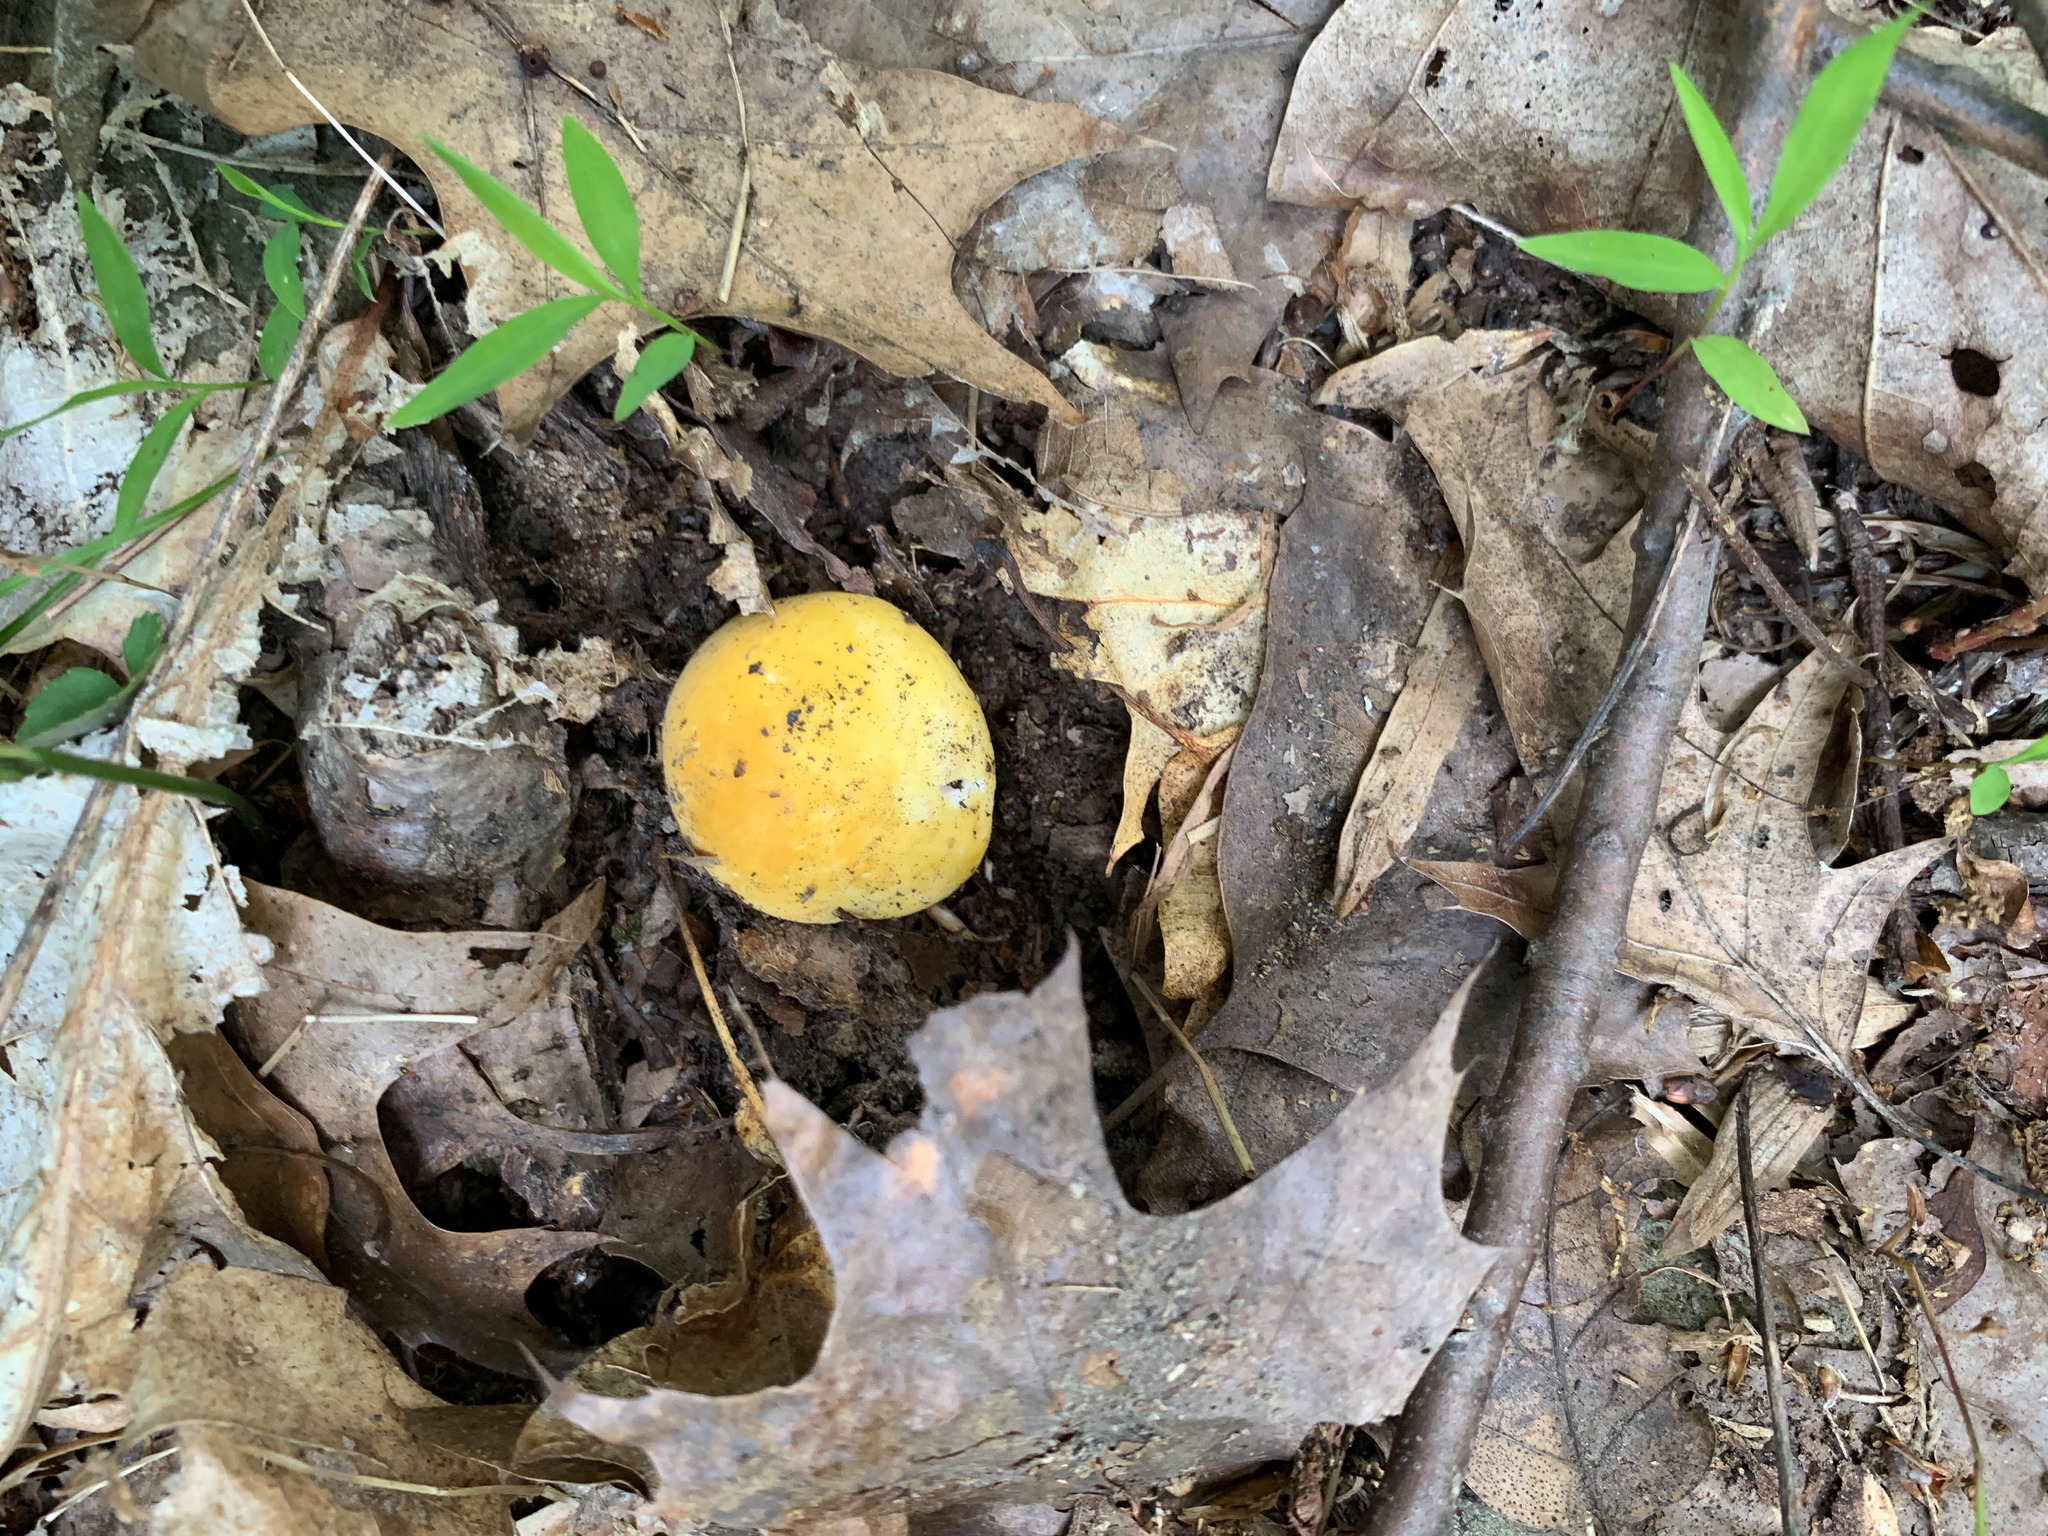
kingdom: Fungi
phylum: Basidiomycota
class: Agaricomycetes
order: Russulales
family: Russulaceae
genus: Russula
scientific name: Russula ochroleuca
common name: Common yellow russula
